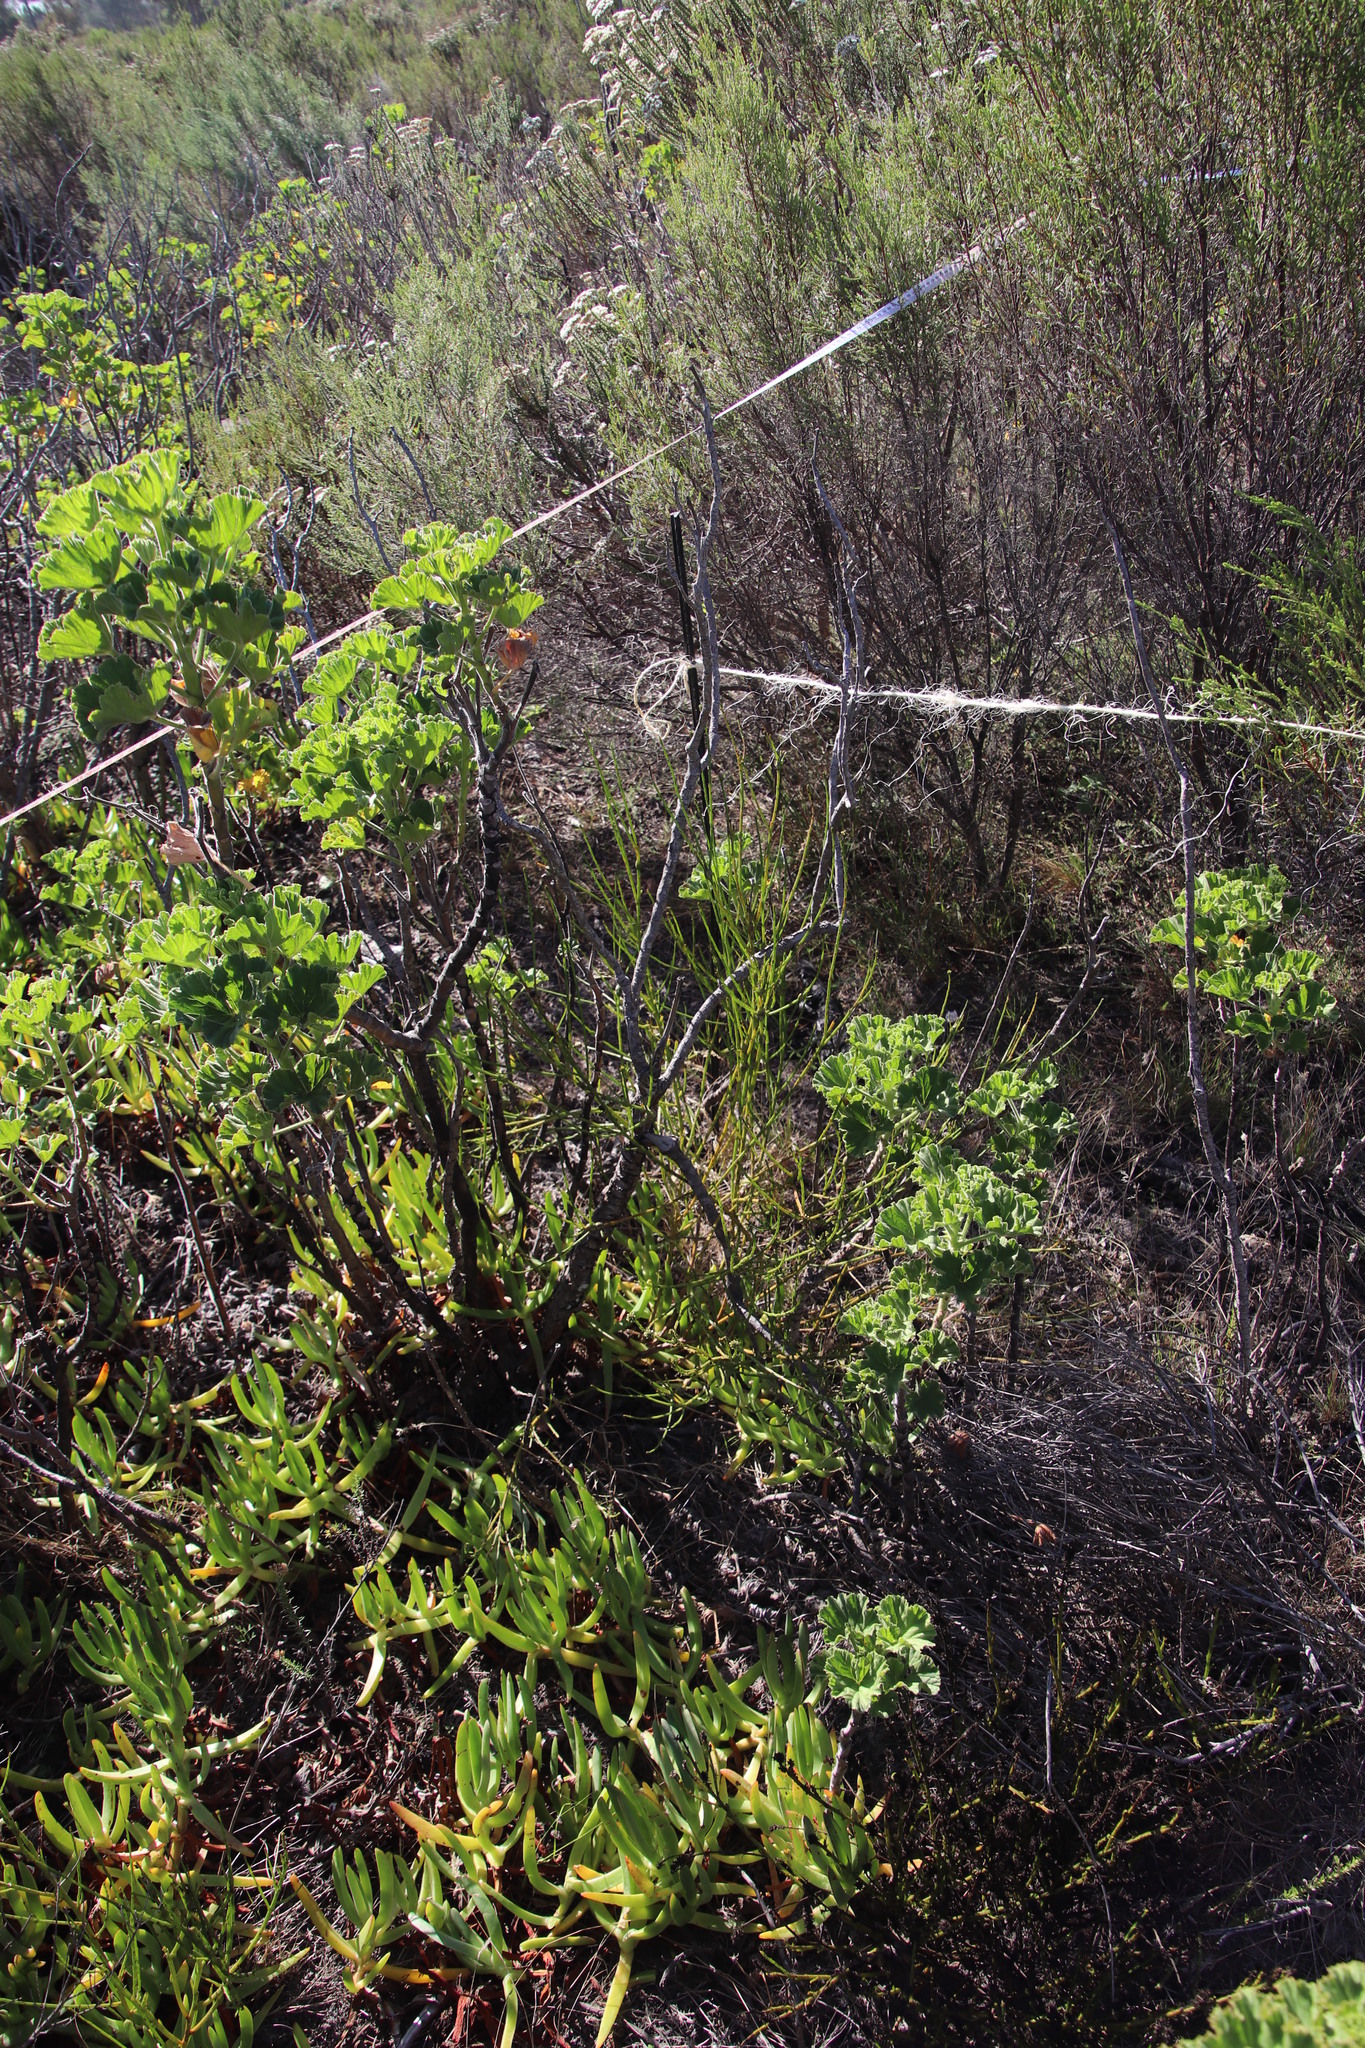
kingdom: Plantae
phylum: Tracheophyta
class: Magnoliopsida
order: Geraniales
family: Geraniaceae
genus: Pelargonium
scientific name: Pelargonium cucullatum
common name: Tree pelargonium
